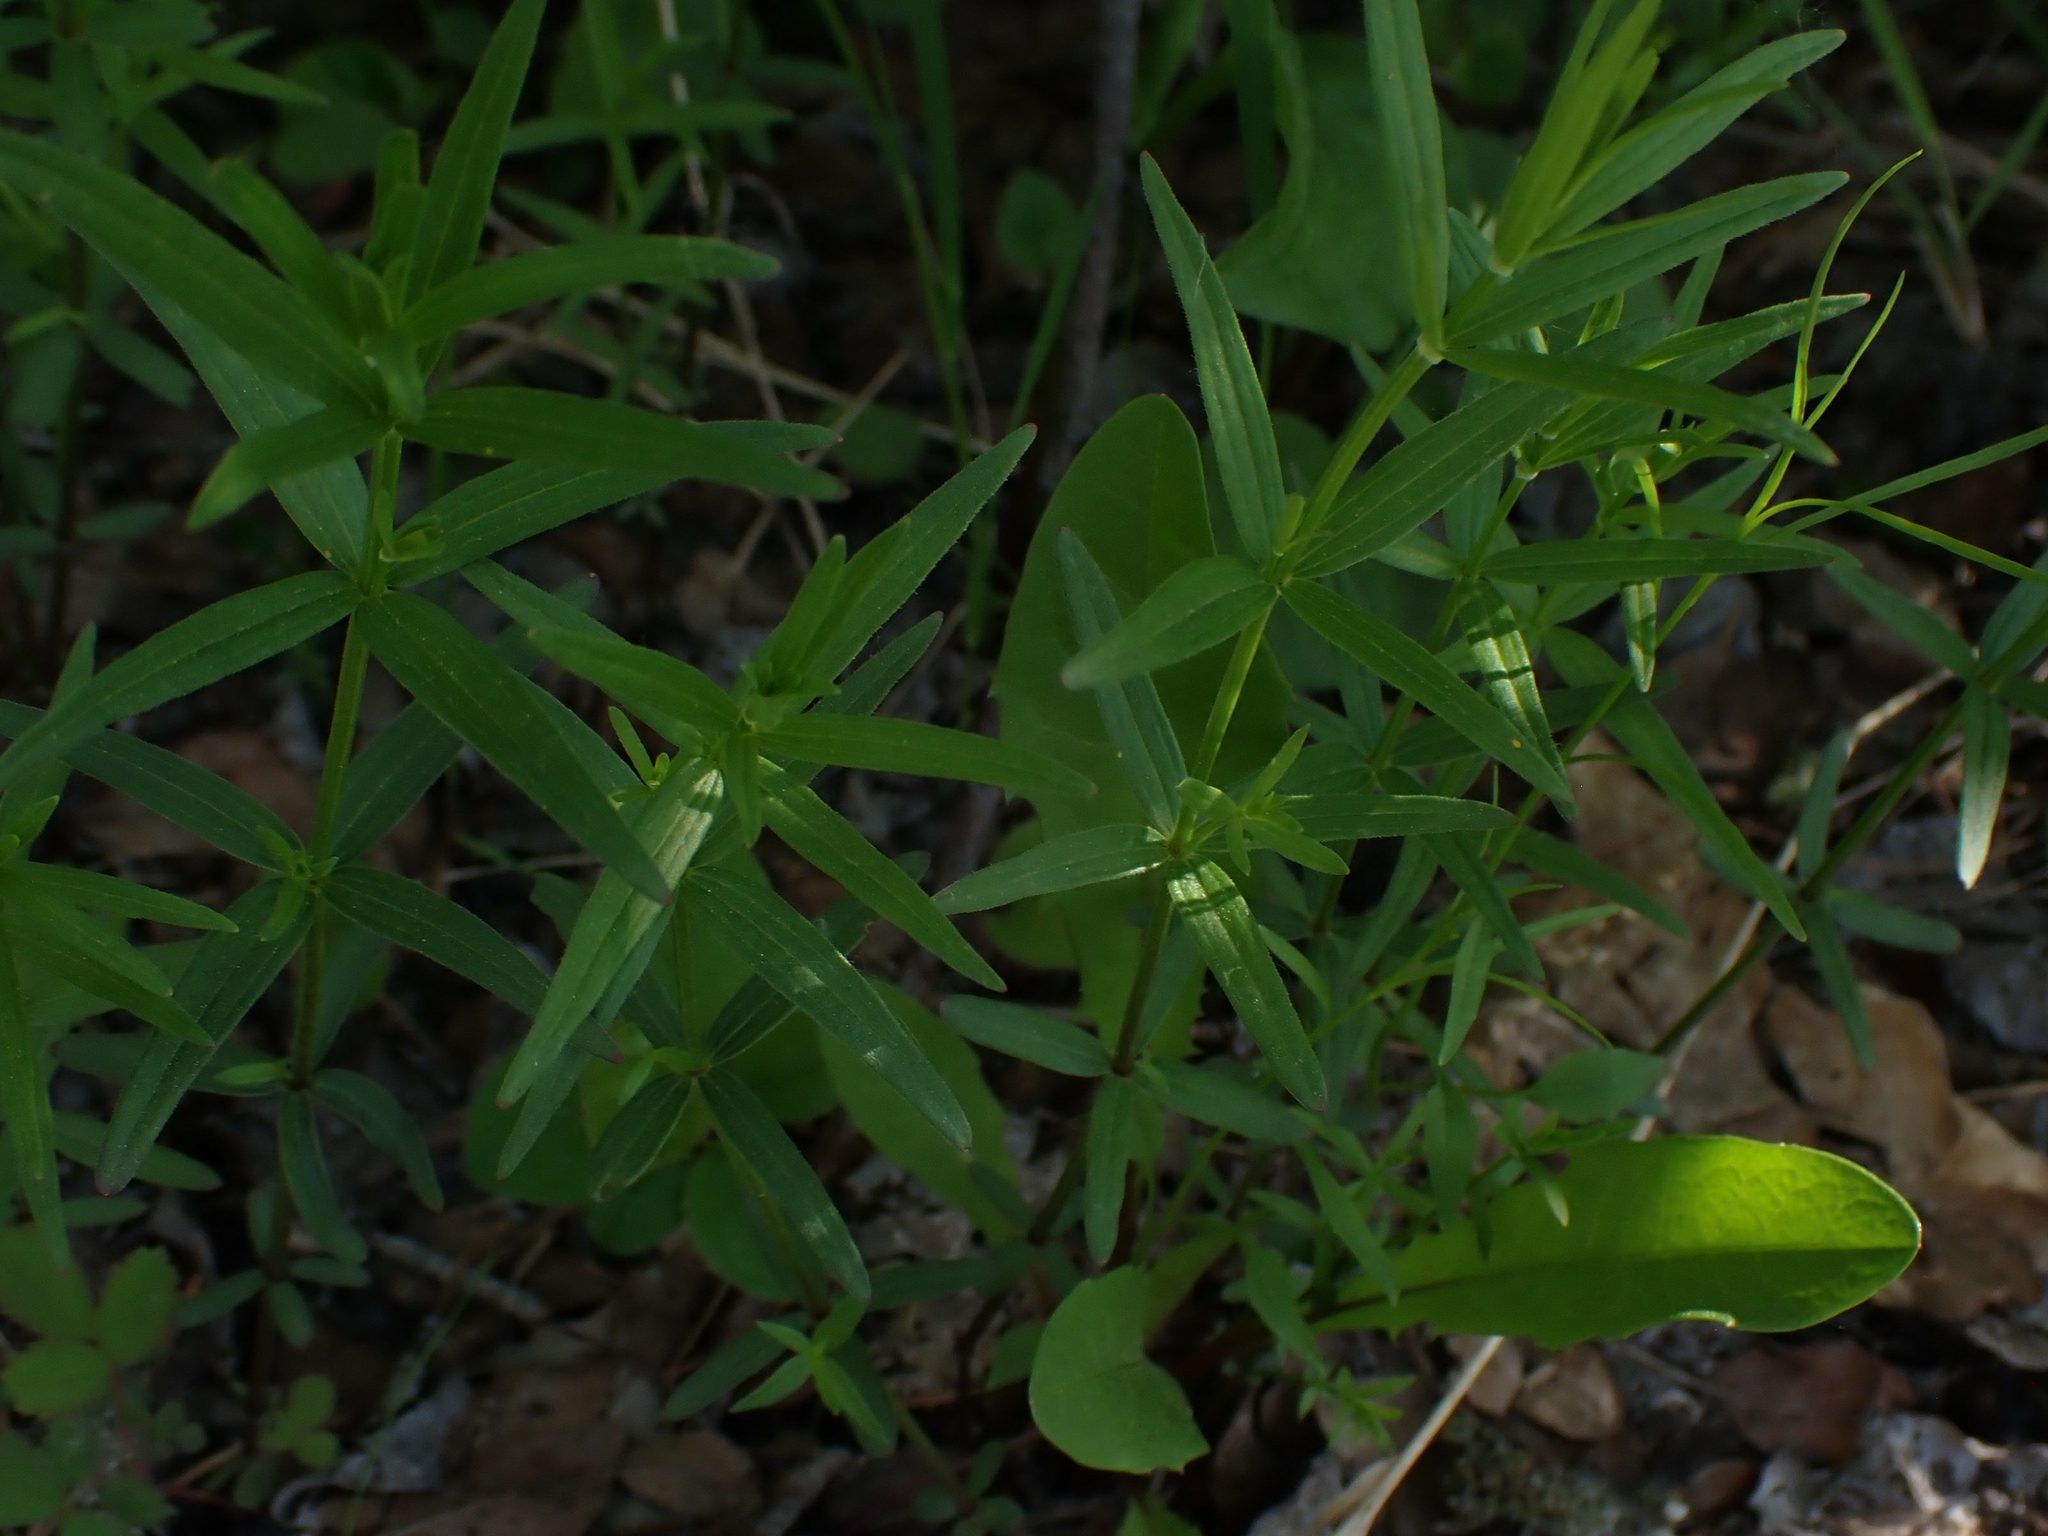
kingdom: Plantae
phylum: Tracheophyta
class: Magnoliopsida
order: Gentianales
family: Rubiaceae
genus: Galium
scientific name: Galium boreale
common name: Northern bedstraw
